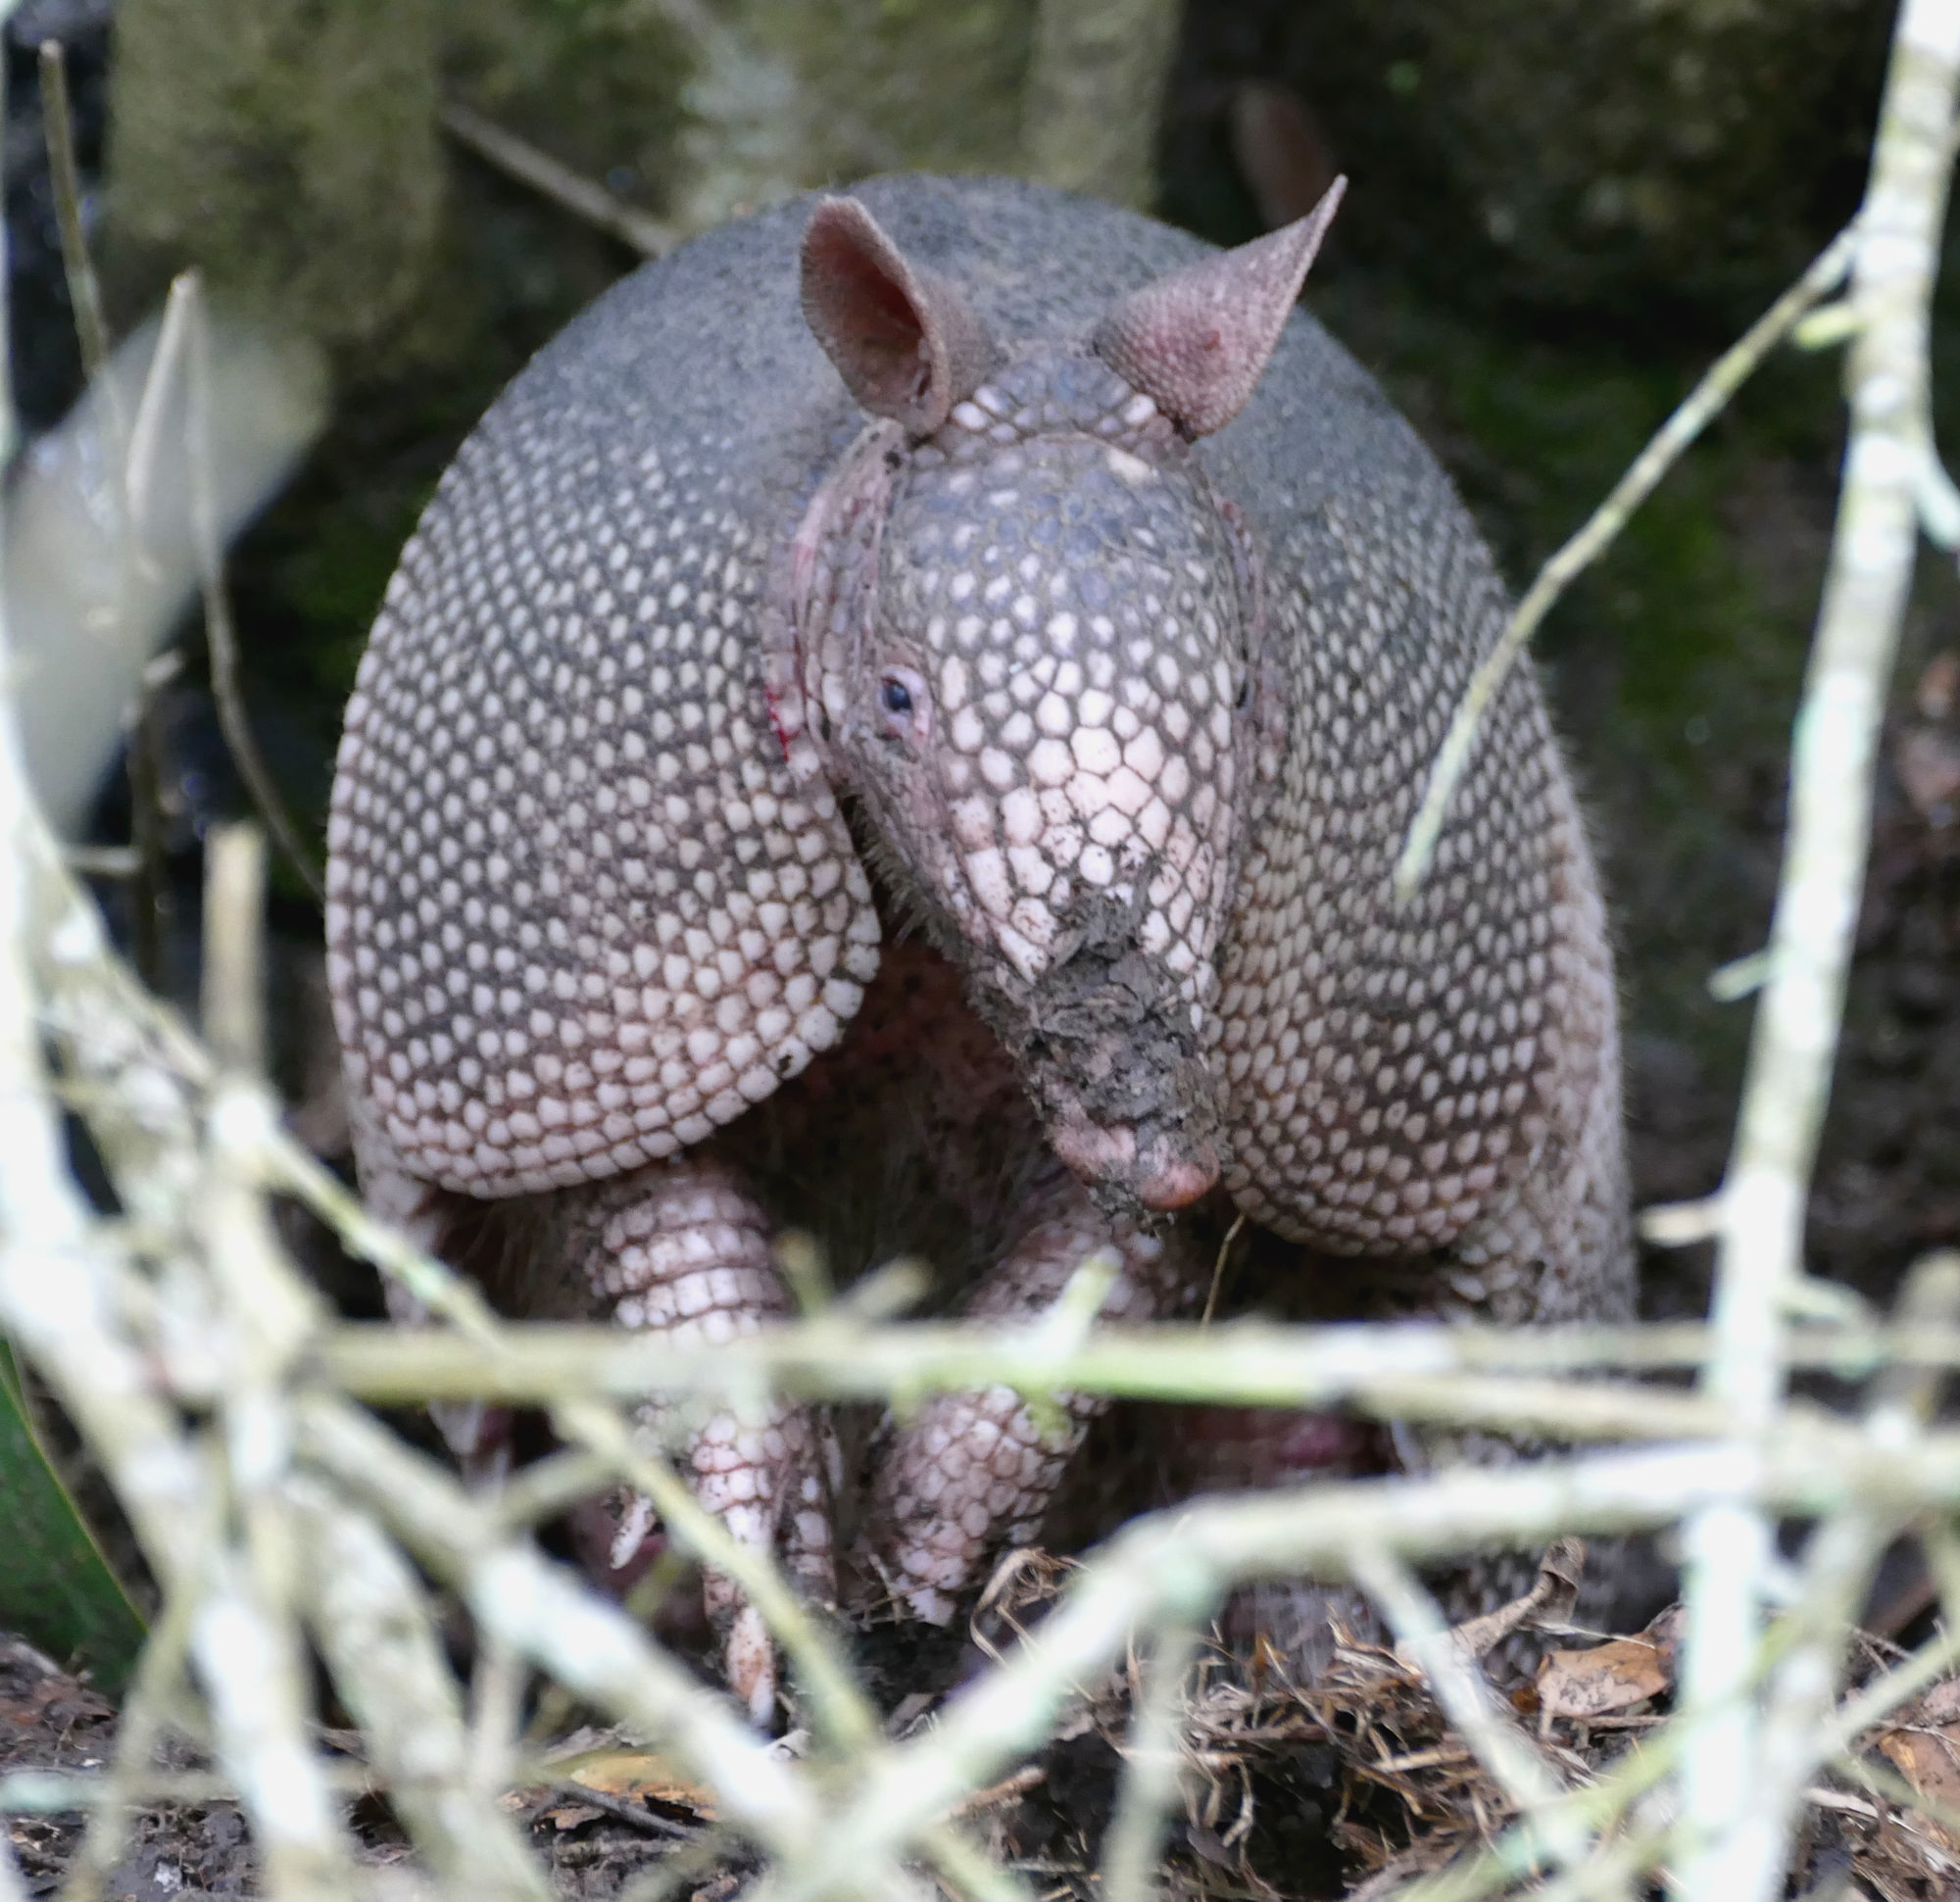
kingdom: Animalia
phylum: Chordata
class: Mammalia
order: Cingulata
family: Dasypodidae
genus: Dasypus
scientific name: Dasypus novemcinctus
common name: Nine-banded armadillo
